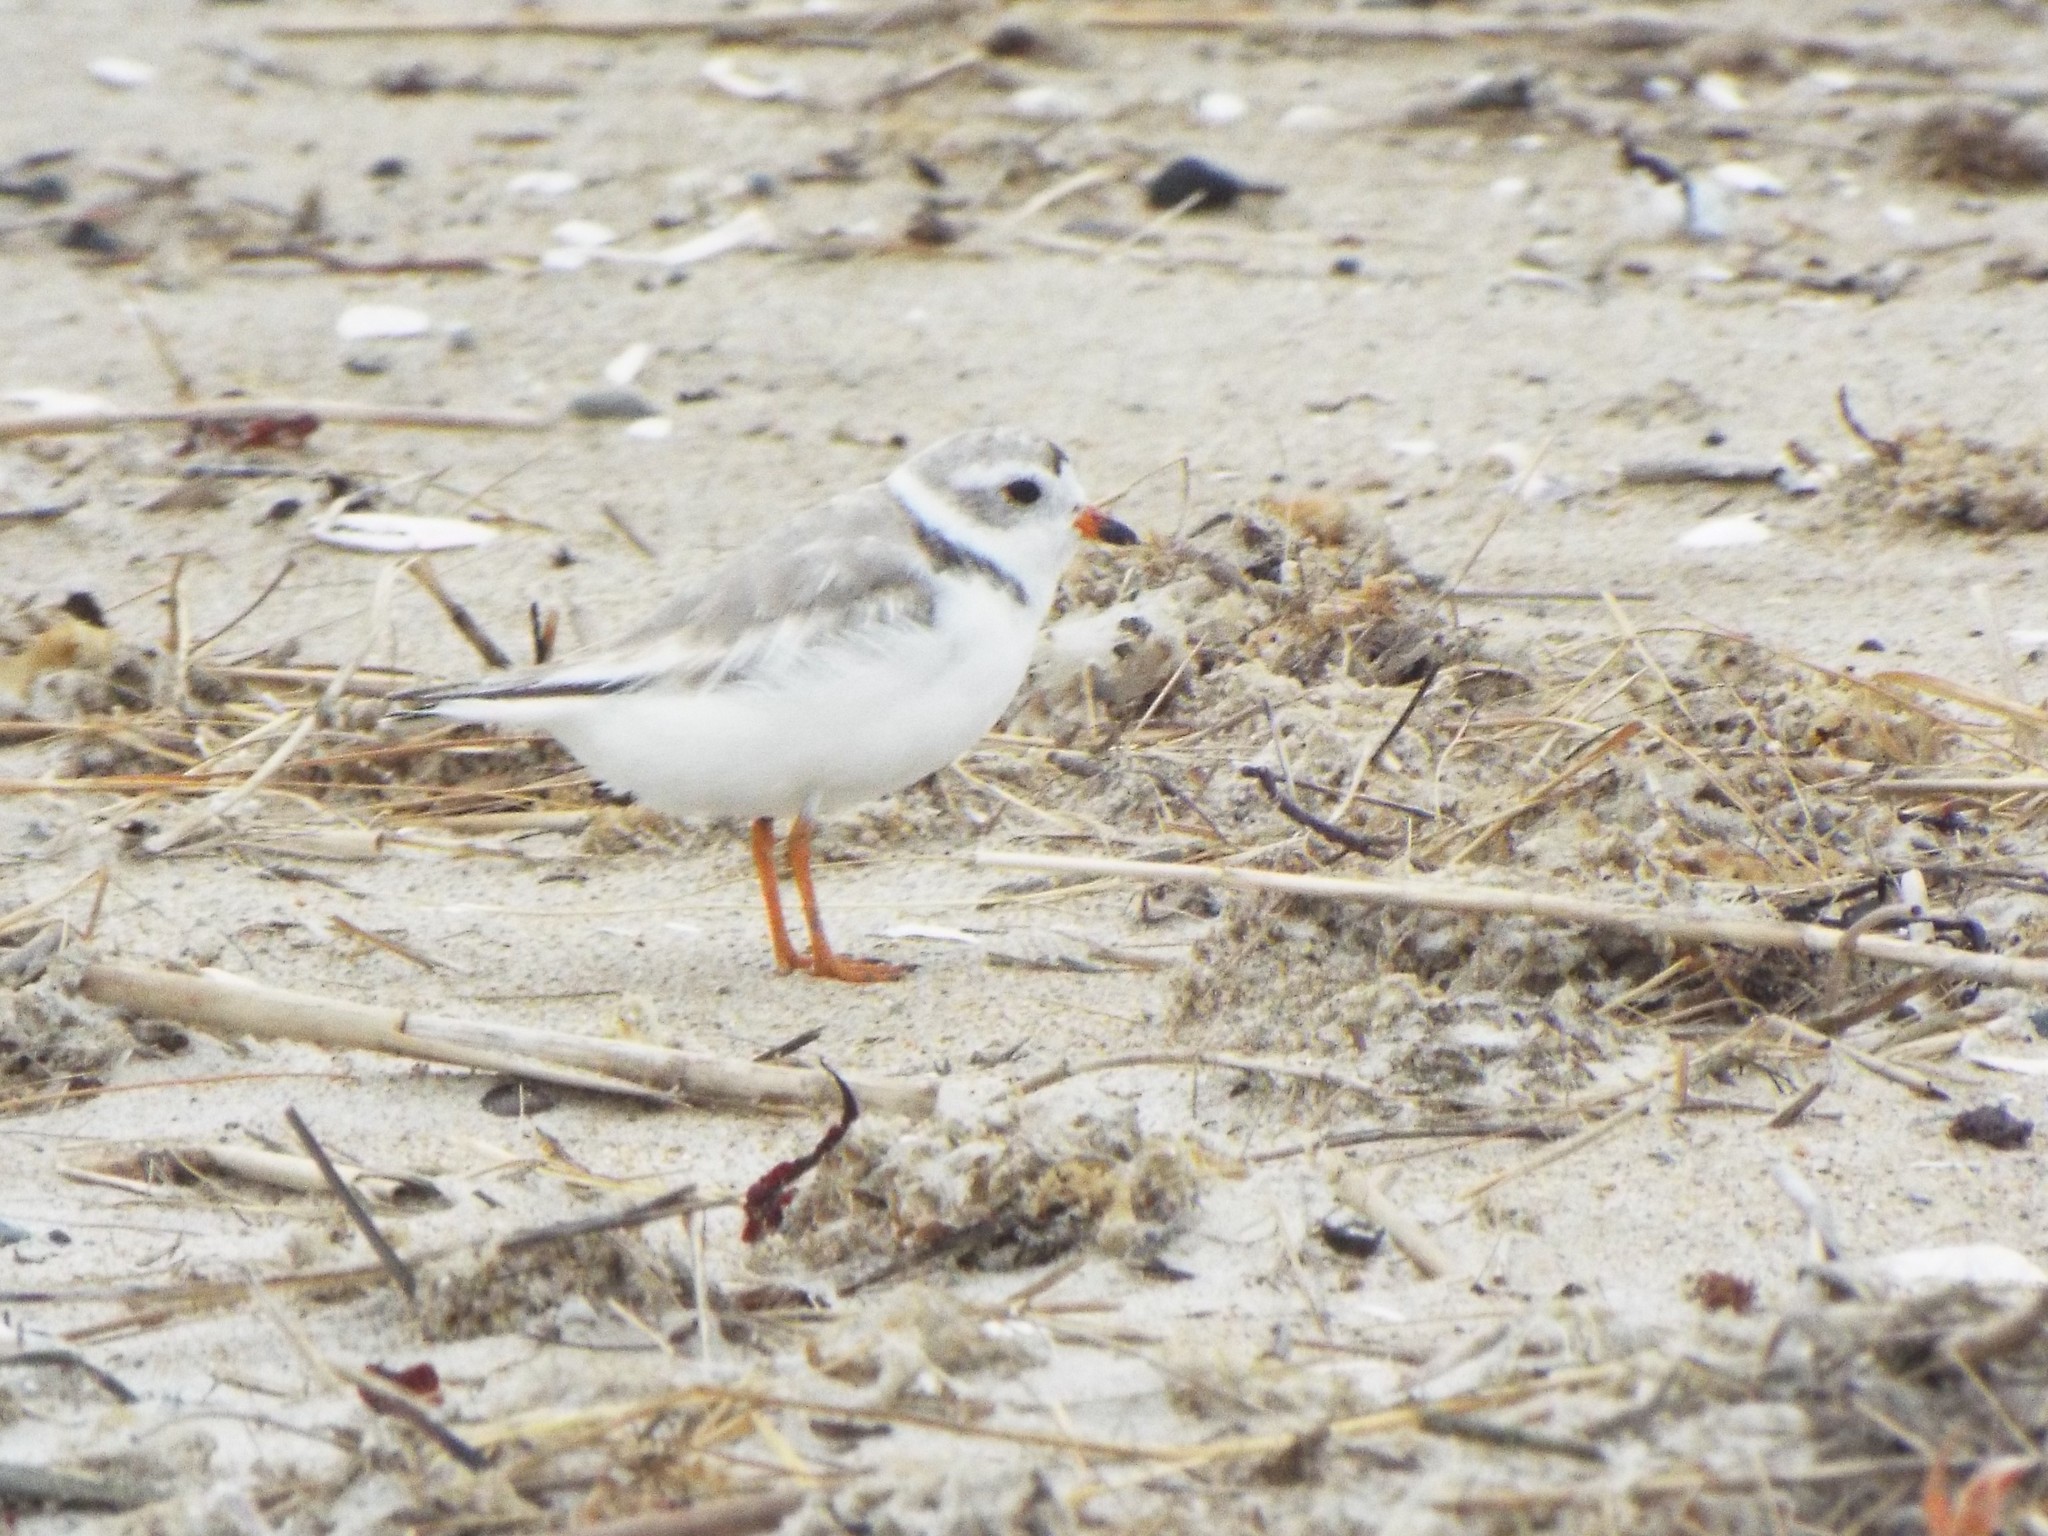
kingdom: Animalia
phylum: Chordata
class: Aves
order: Charadriiformes
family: Charadriidae
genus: Charadrius
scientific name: Charadrius melodus
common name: Piping plover
